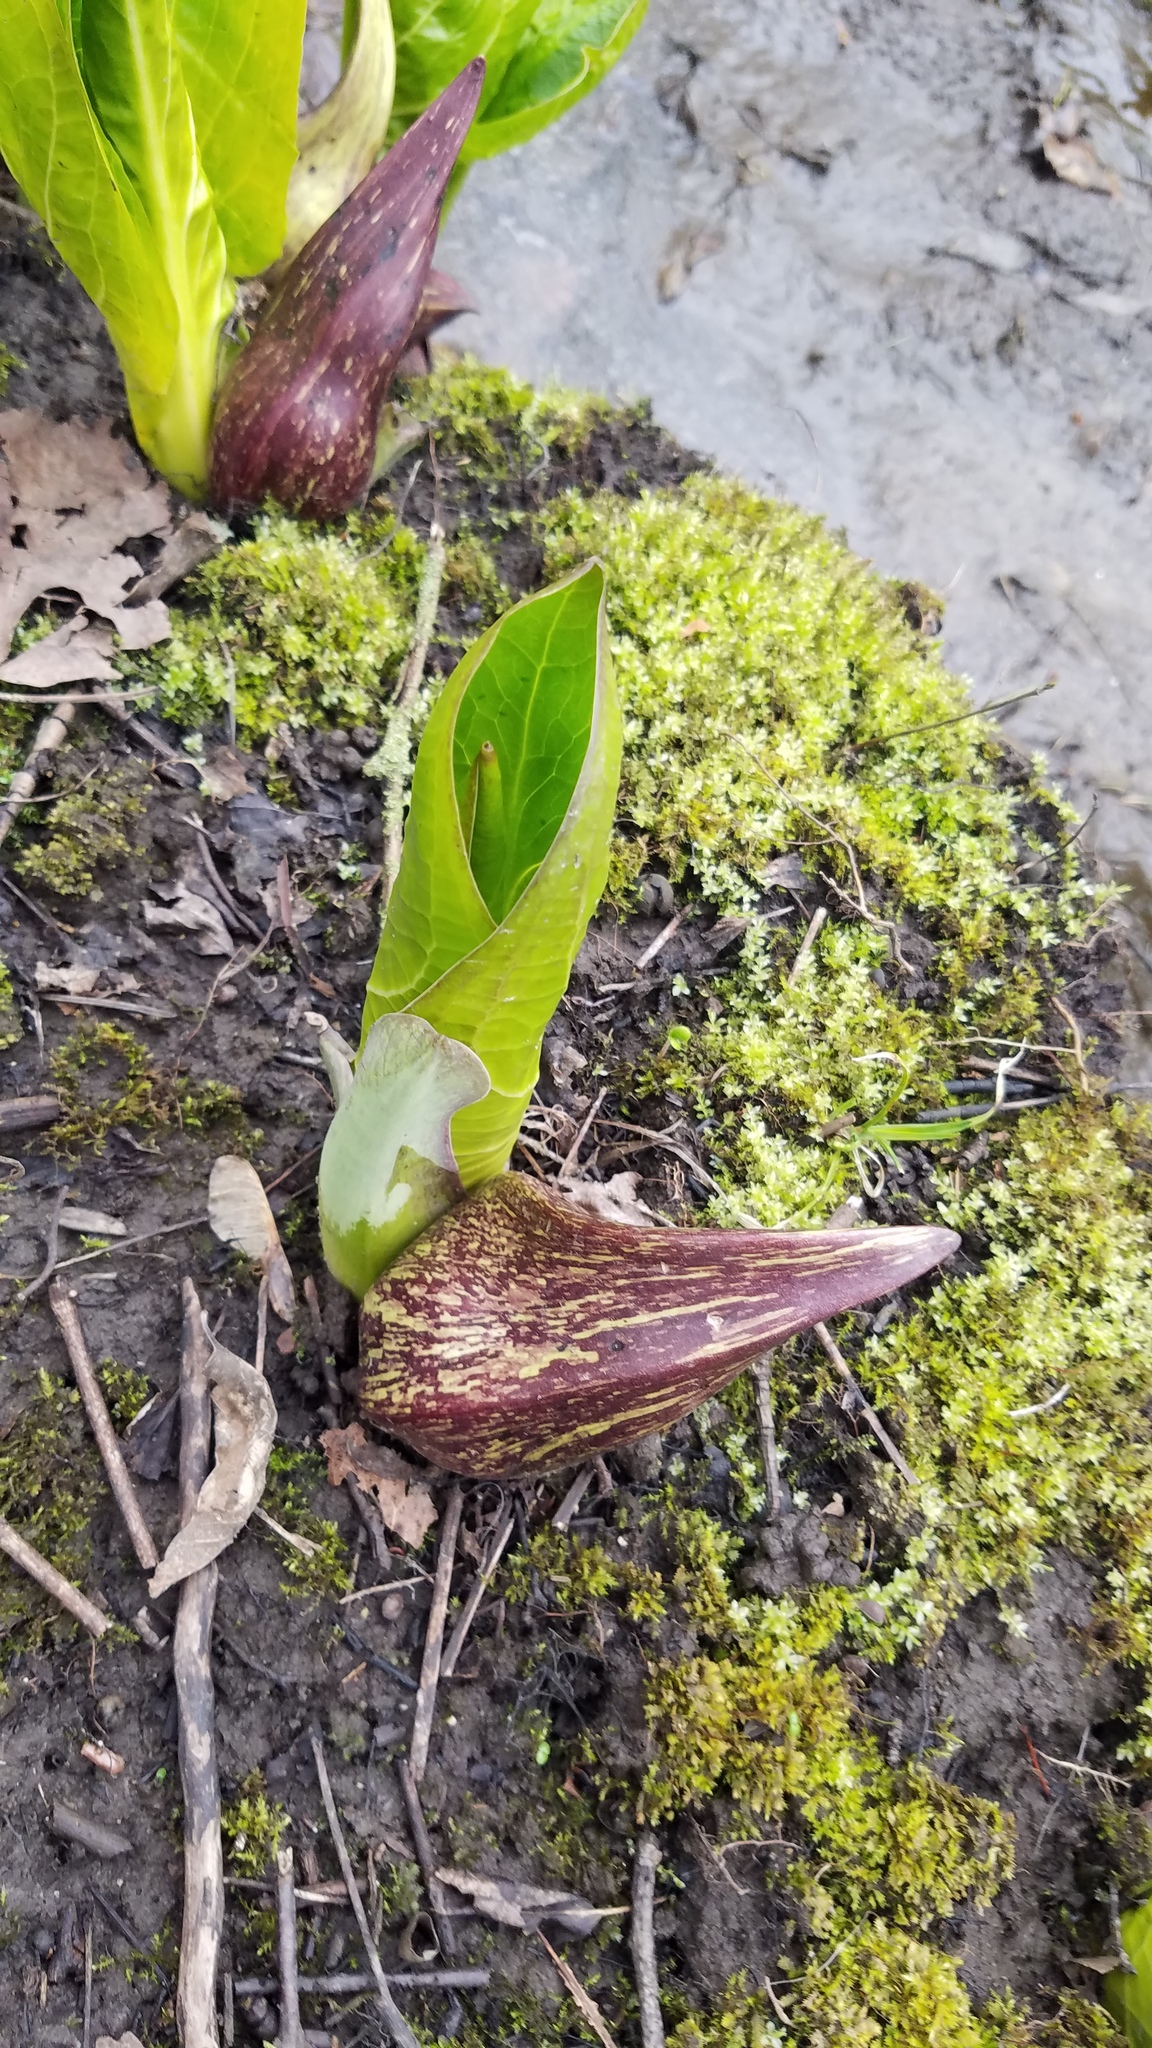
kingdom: Plantae
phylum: Tracheophyta
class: Liliopsida
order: Alismatales
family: Araceae
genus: Symplocarpus
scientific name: Symplocarpus foetidus
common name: Eastern skunk cabbage
